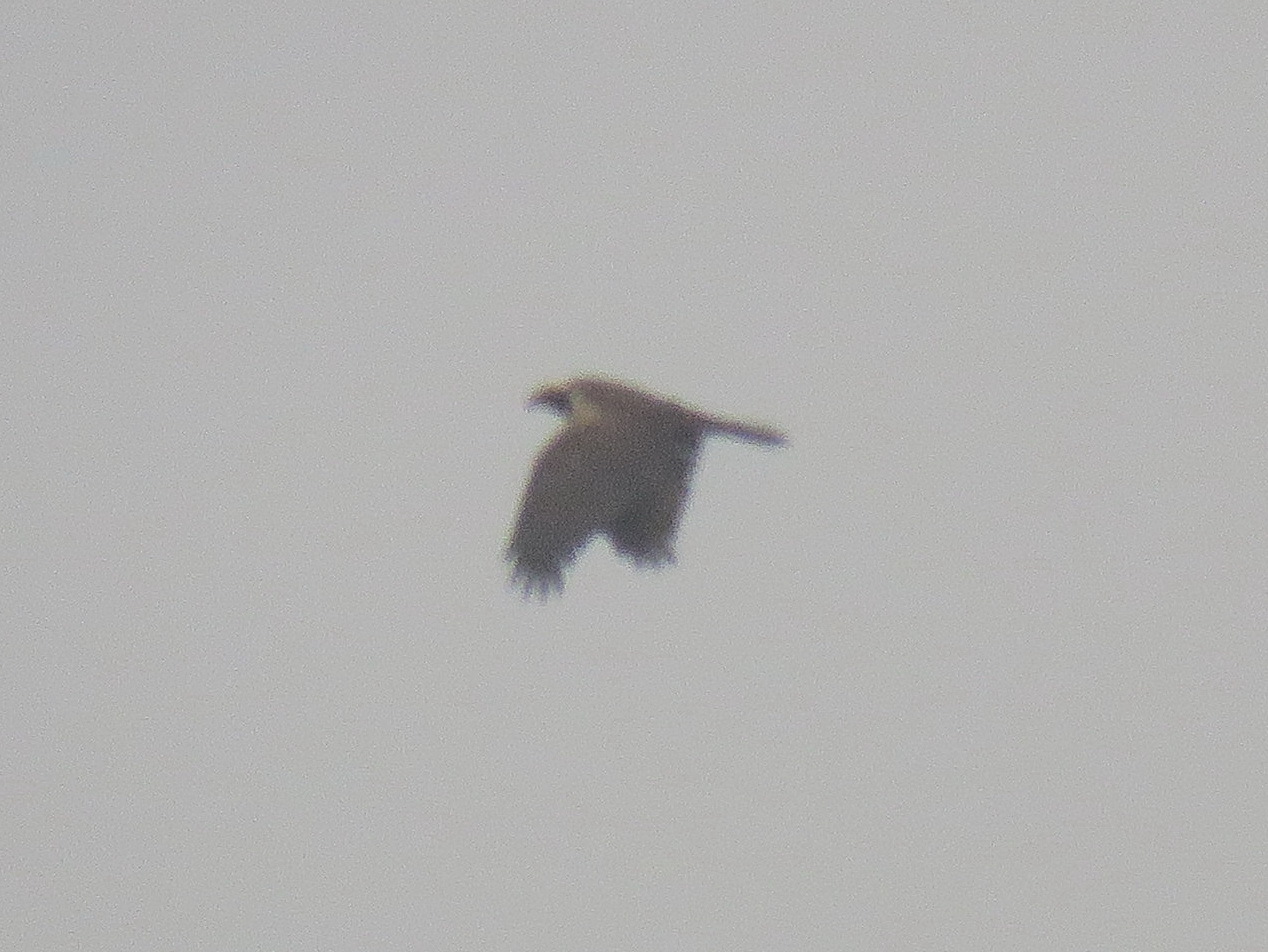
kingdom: Animalia
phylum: Chordata
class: Aves
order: Accipitriformes
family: Accipitridae
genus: Circus
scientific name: Circus aeruginosus
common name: Western marsh harrier
